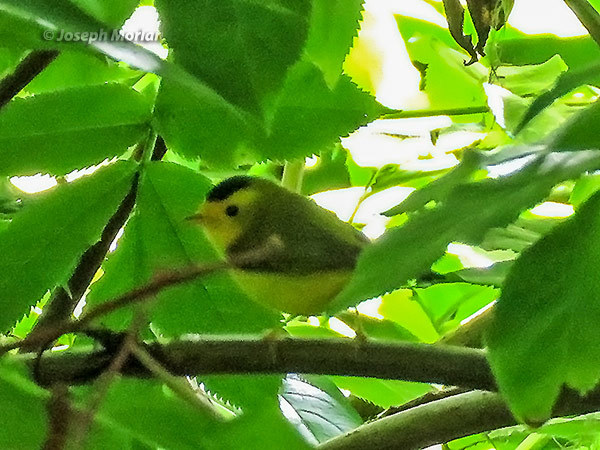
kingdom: Animalia
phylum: Chordata
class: Aves
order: Passeriformes
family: Parulidae
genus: Cardellina
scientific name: Cardellina pusilla
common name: Wilson's warbler
